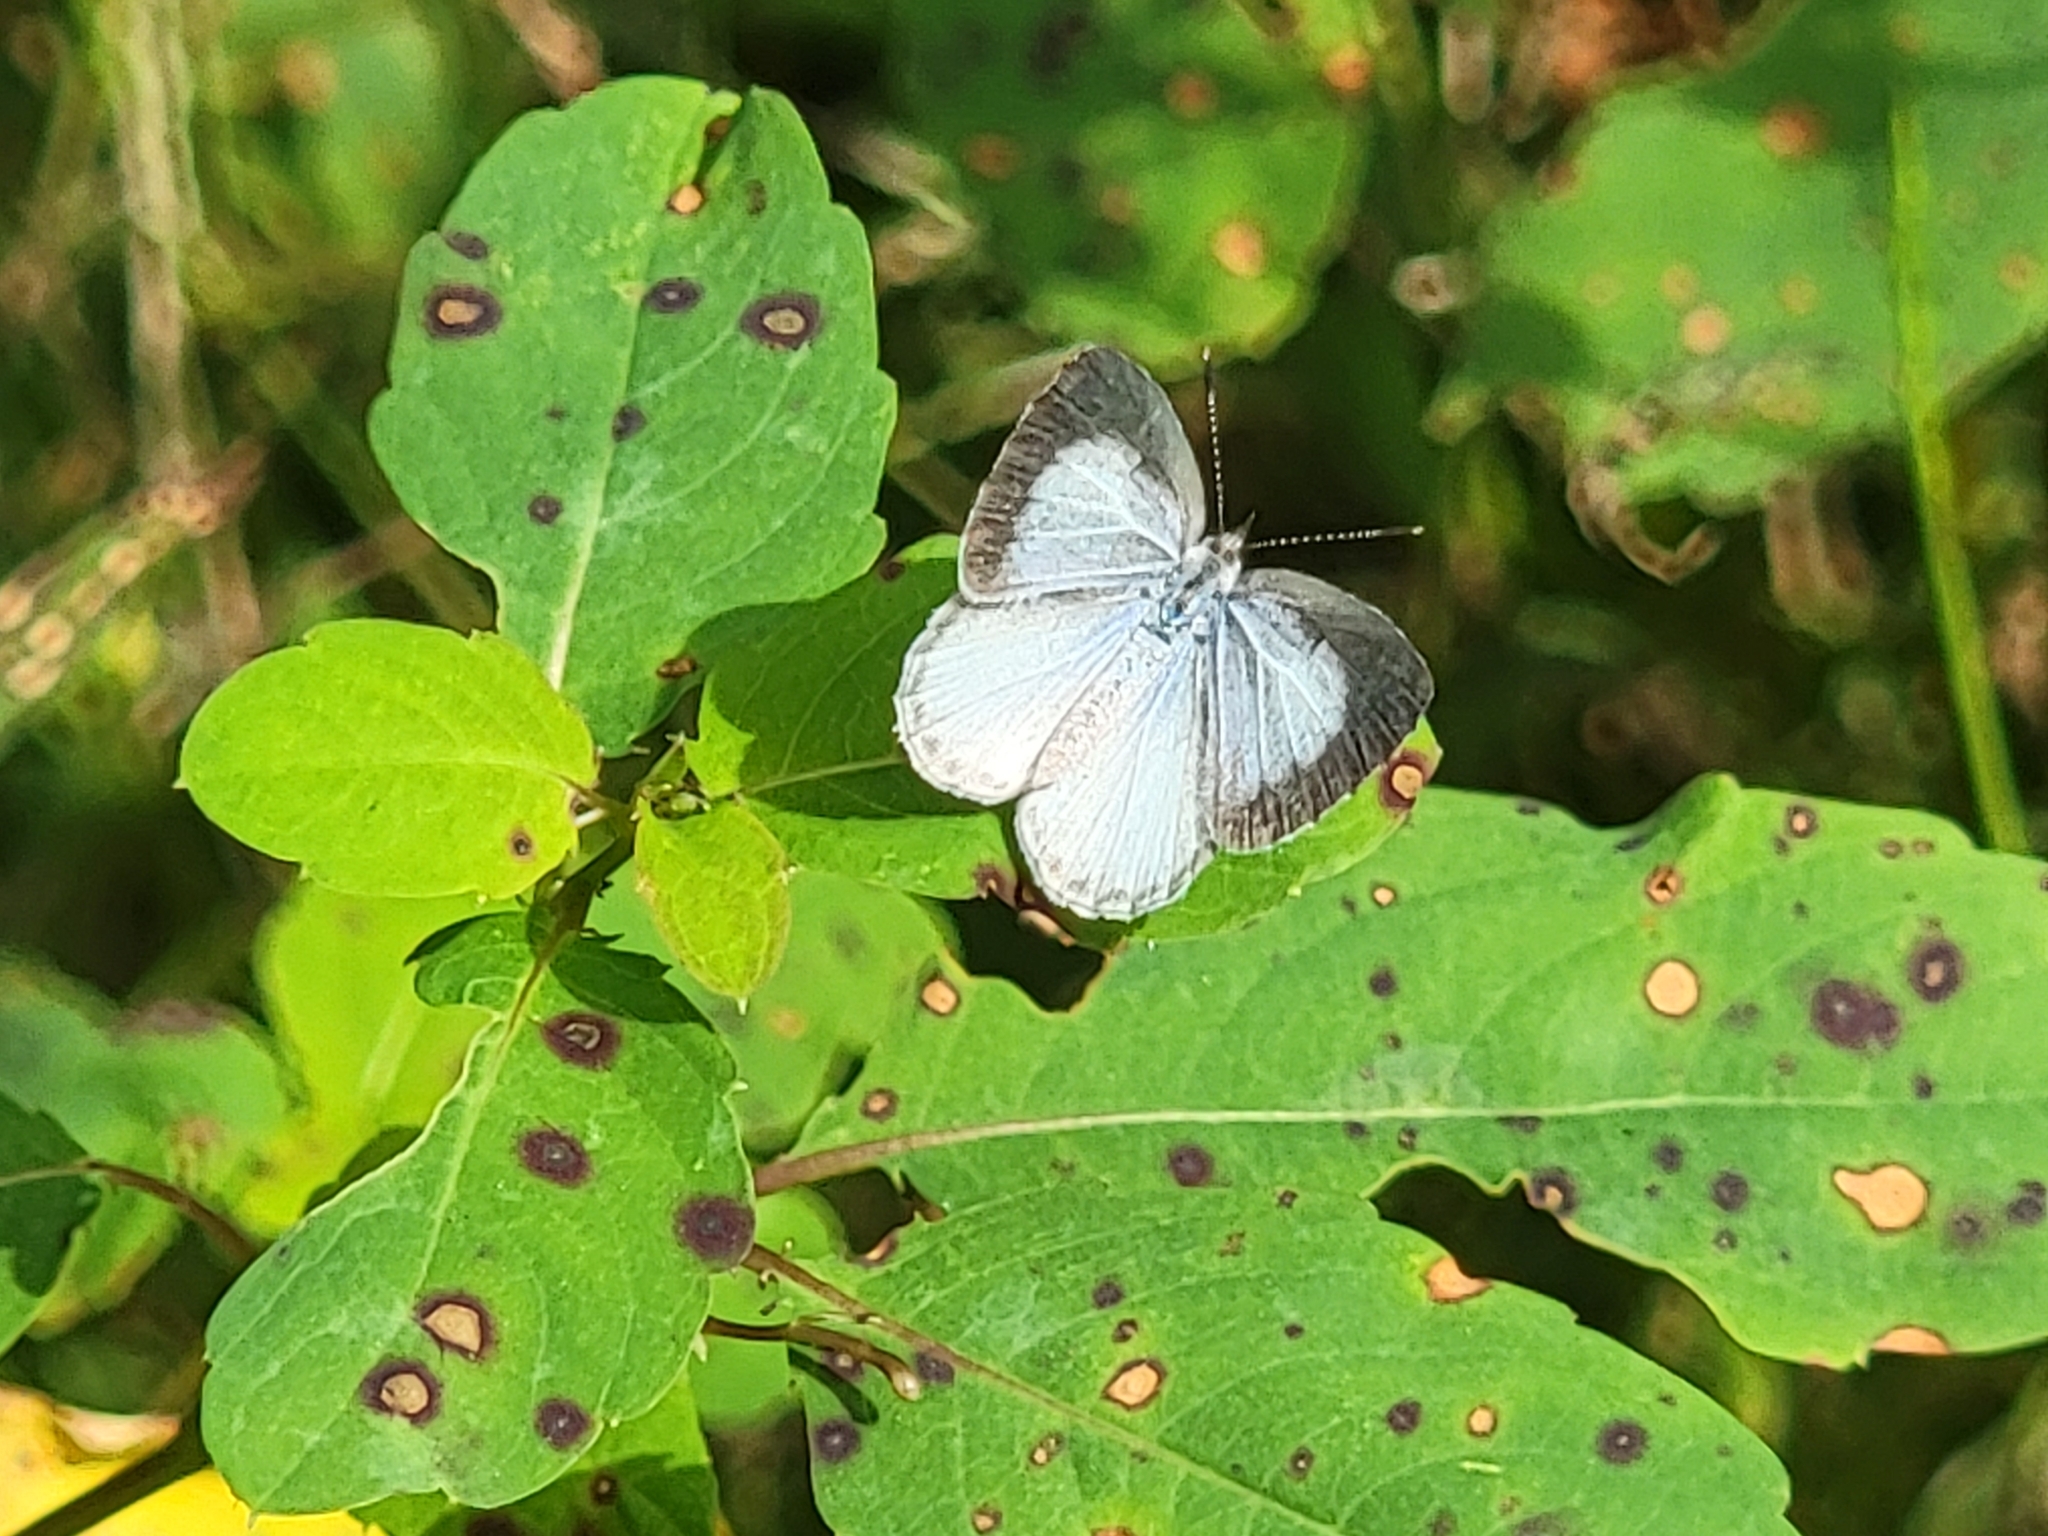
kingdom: Animalia
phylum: Arthropoda
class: Insecta
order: Lepidoptera
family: Lycaenidae
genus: Cyaniris
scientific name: Cyaniris neglecta
